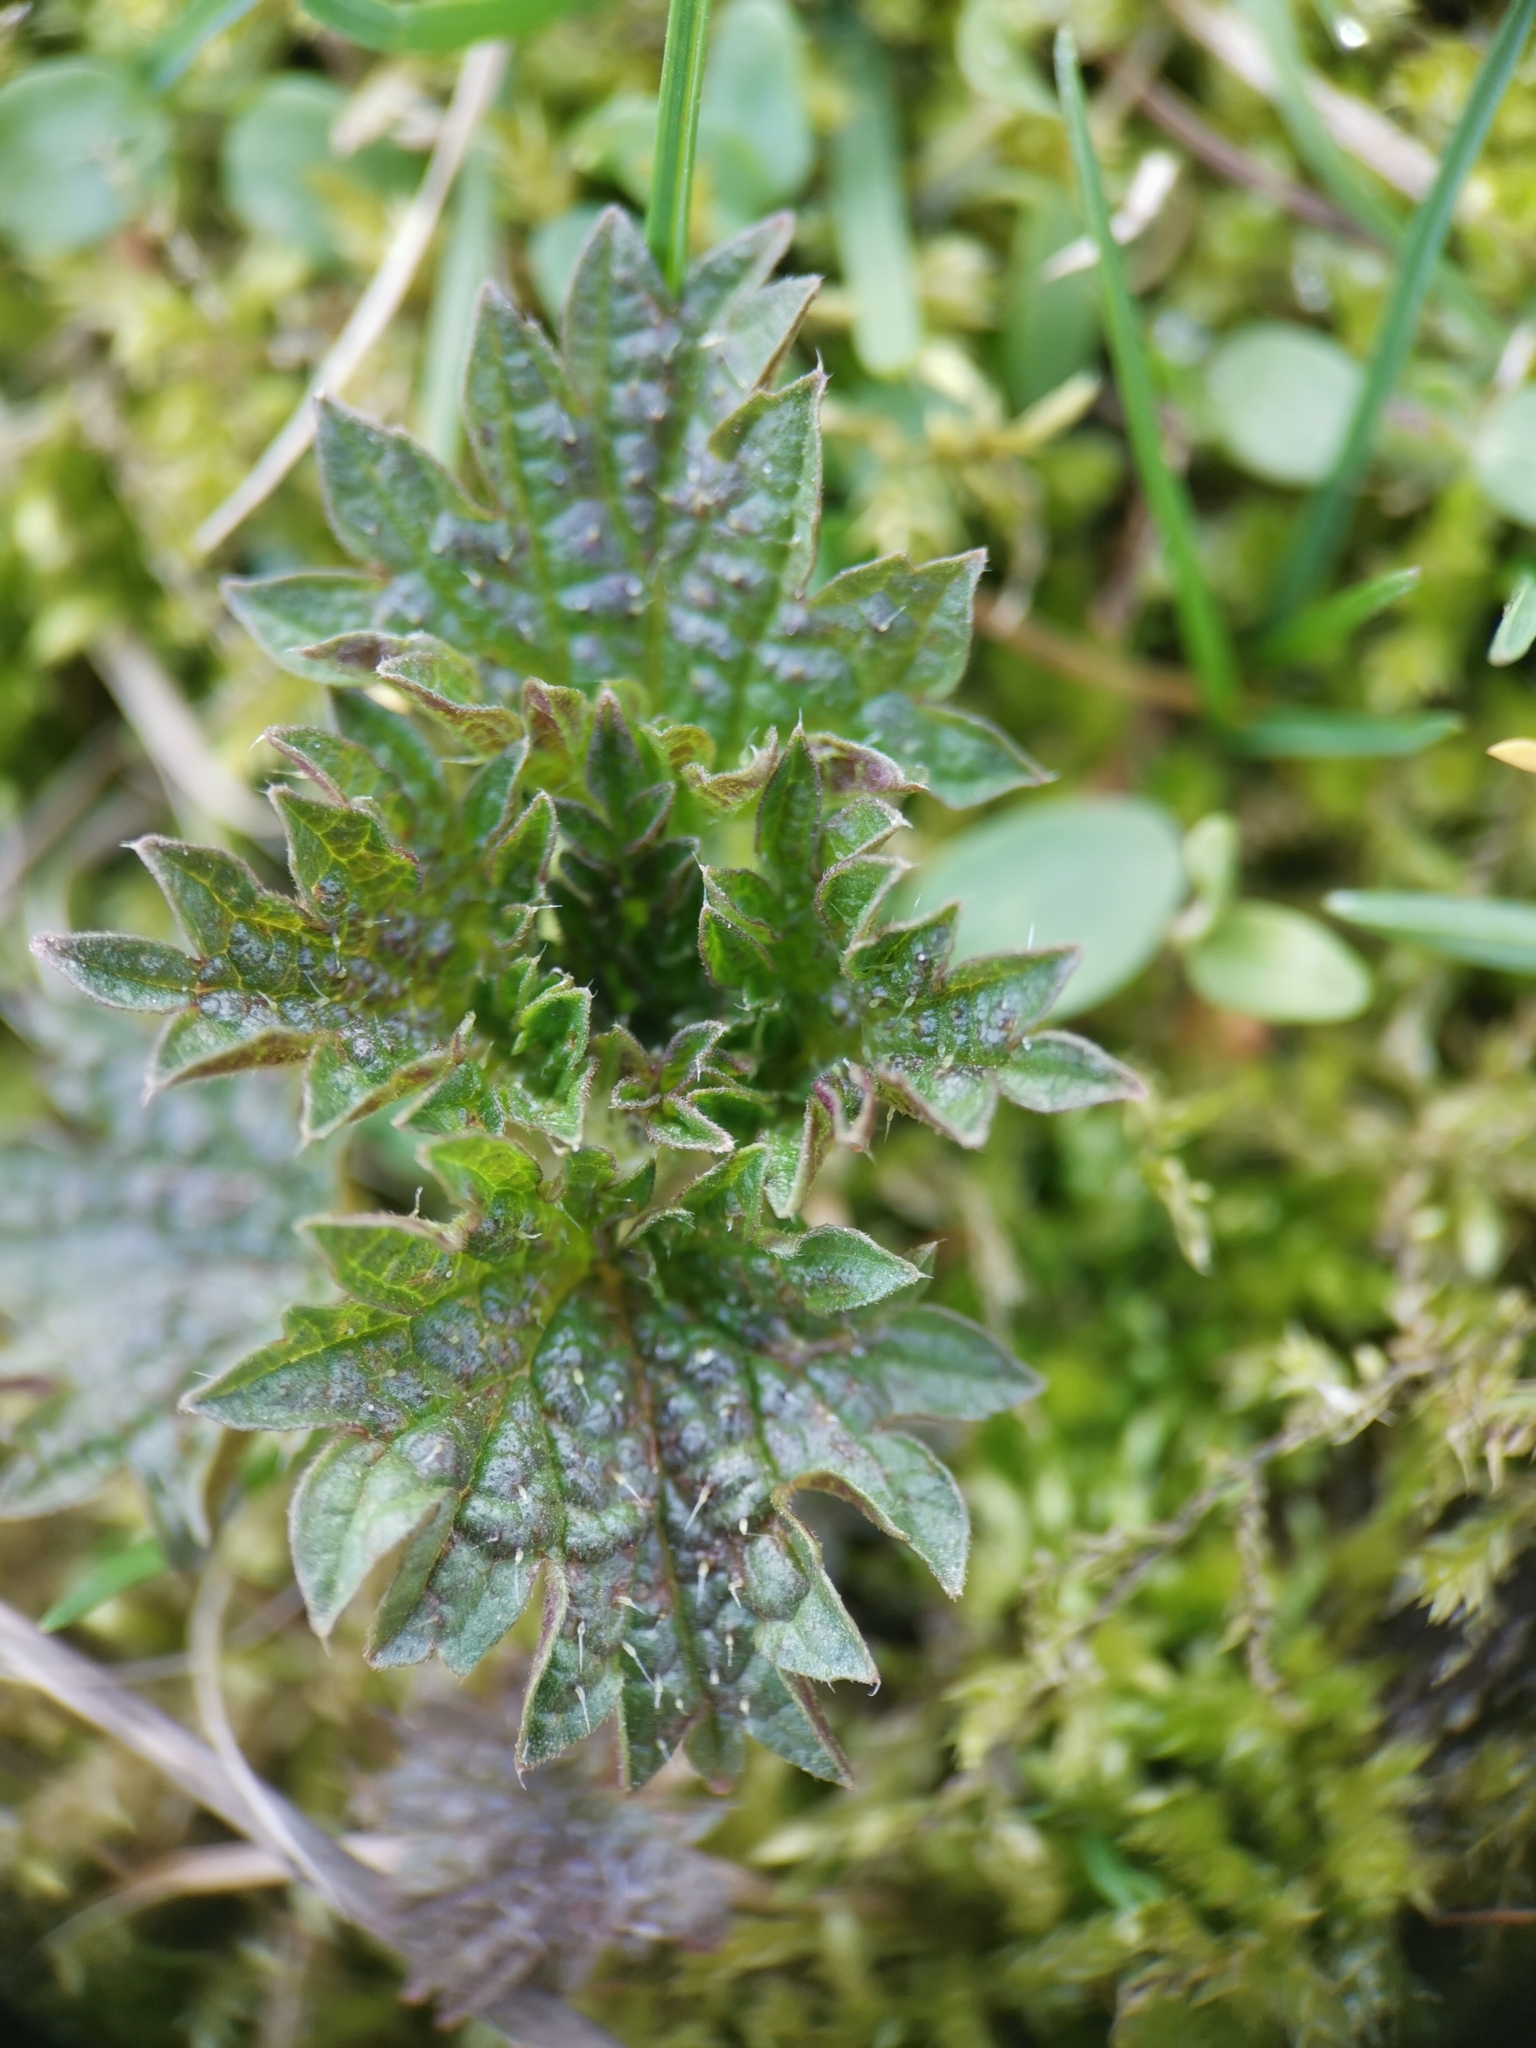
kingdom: Plantae
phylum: Tracheophyta
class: Magnoliopsida
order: Rosales
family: Urticaceae
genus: Urtica
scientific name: Urtica dioica
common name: Common nettle
